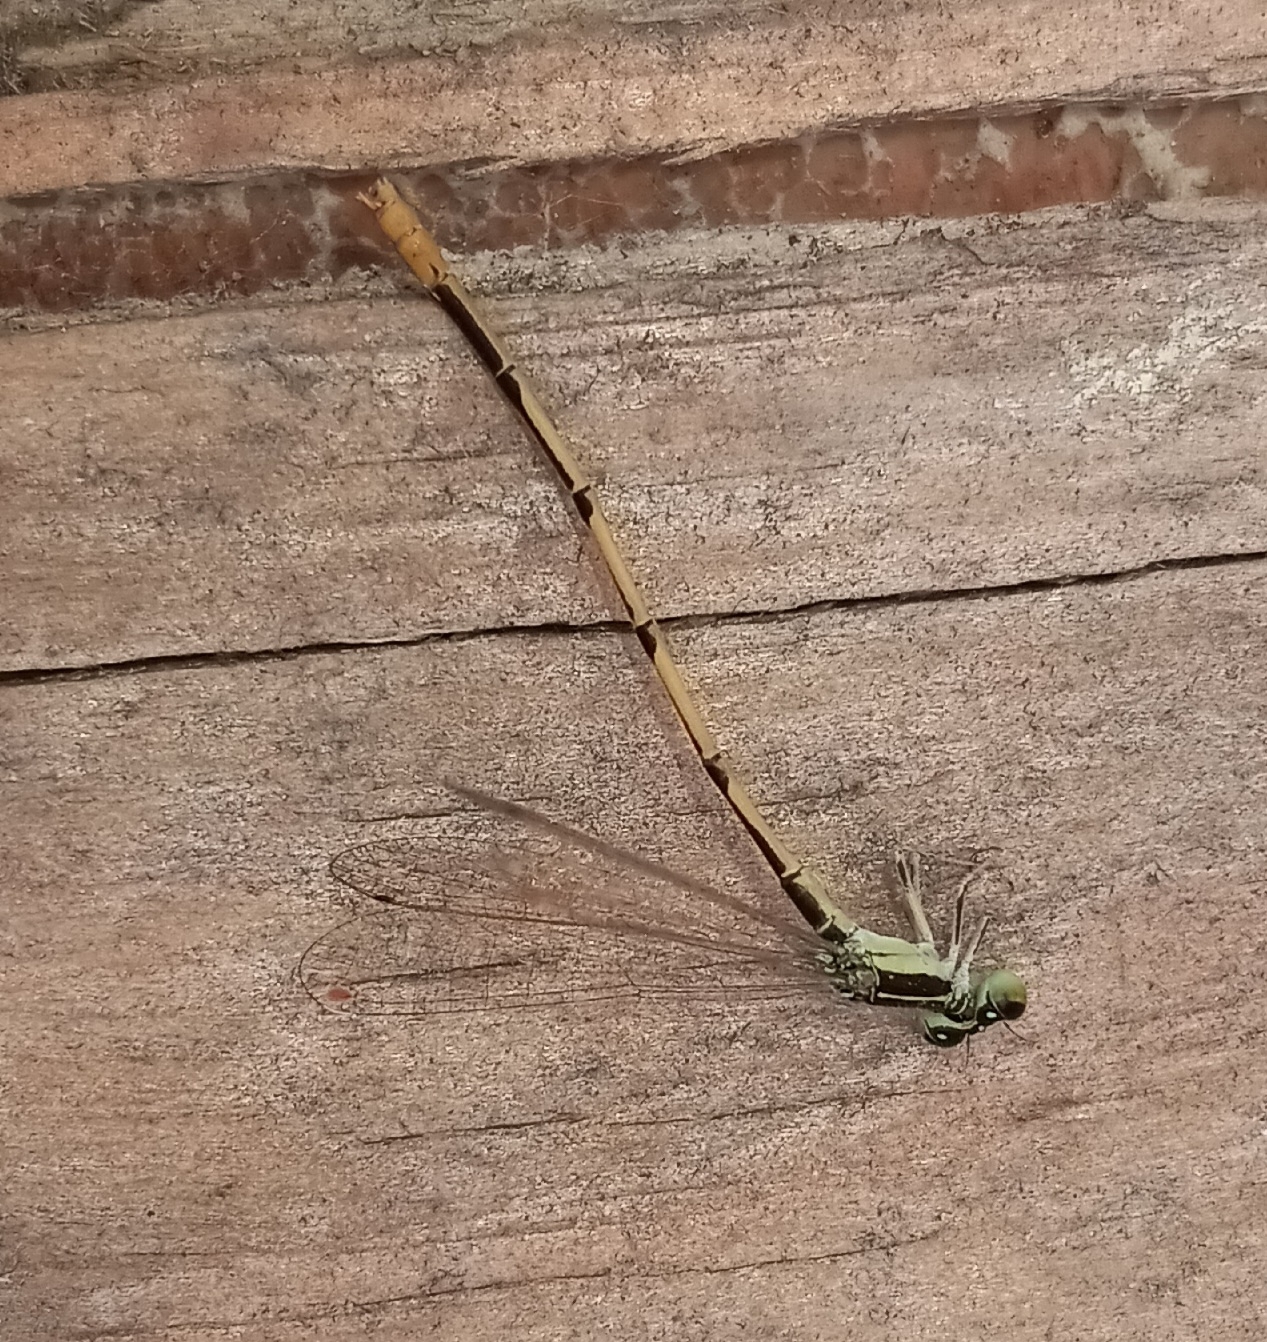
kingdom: Animalia
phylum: Arthropoda
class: Insecta
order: Odonata
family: Coenagrionidae
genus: Ischnura
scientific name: Ischnura hastata
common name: Citrine forktail
